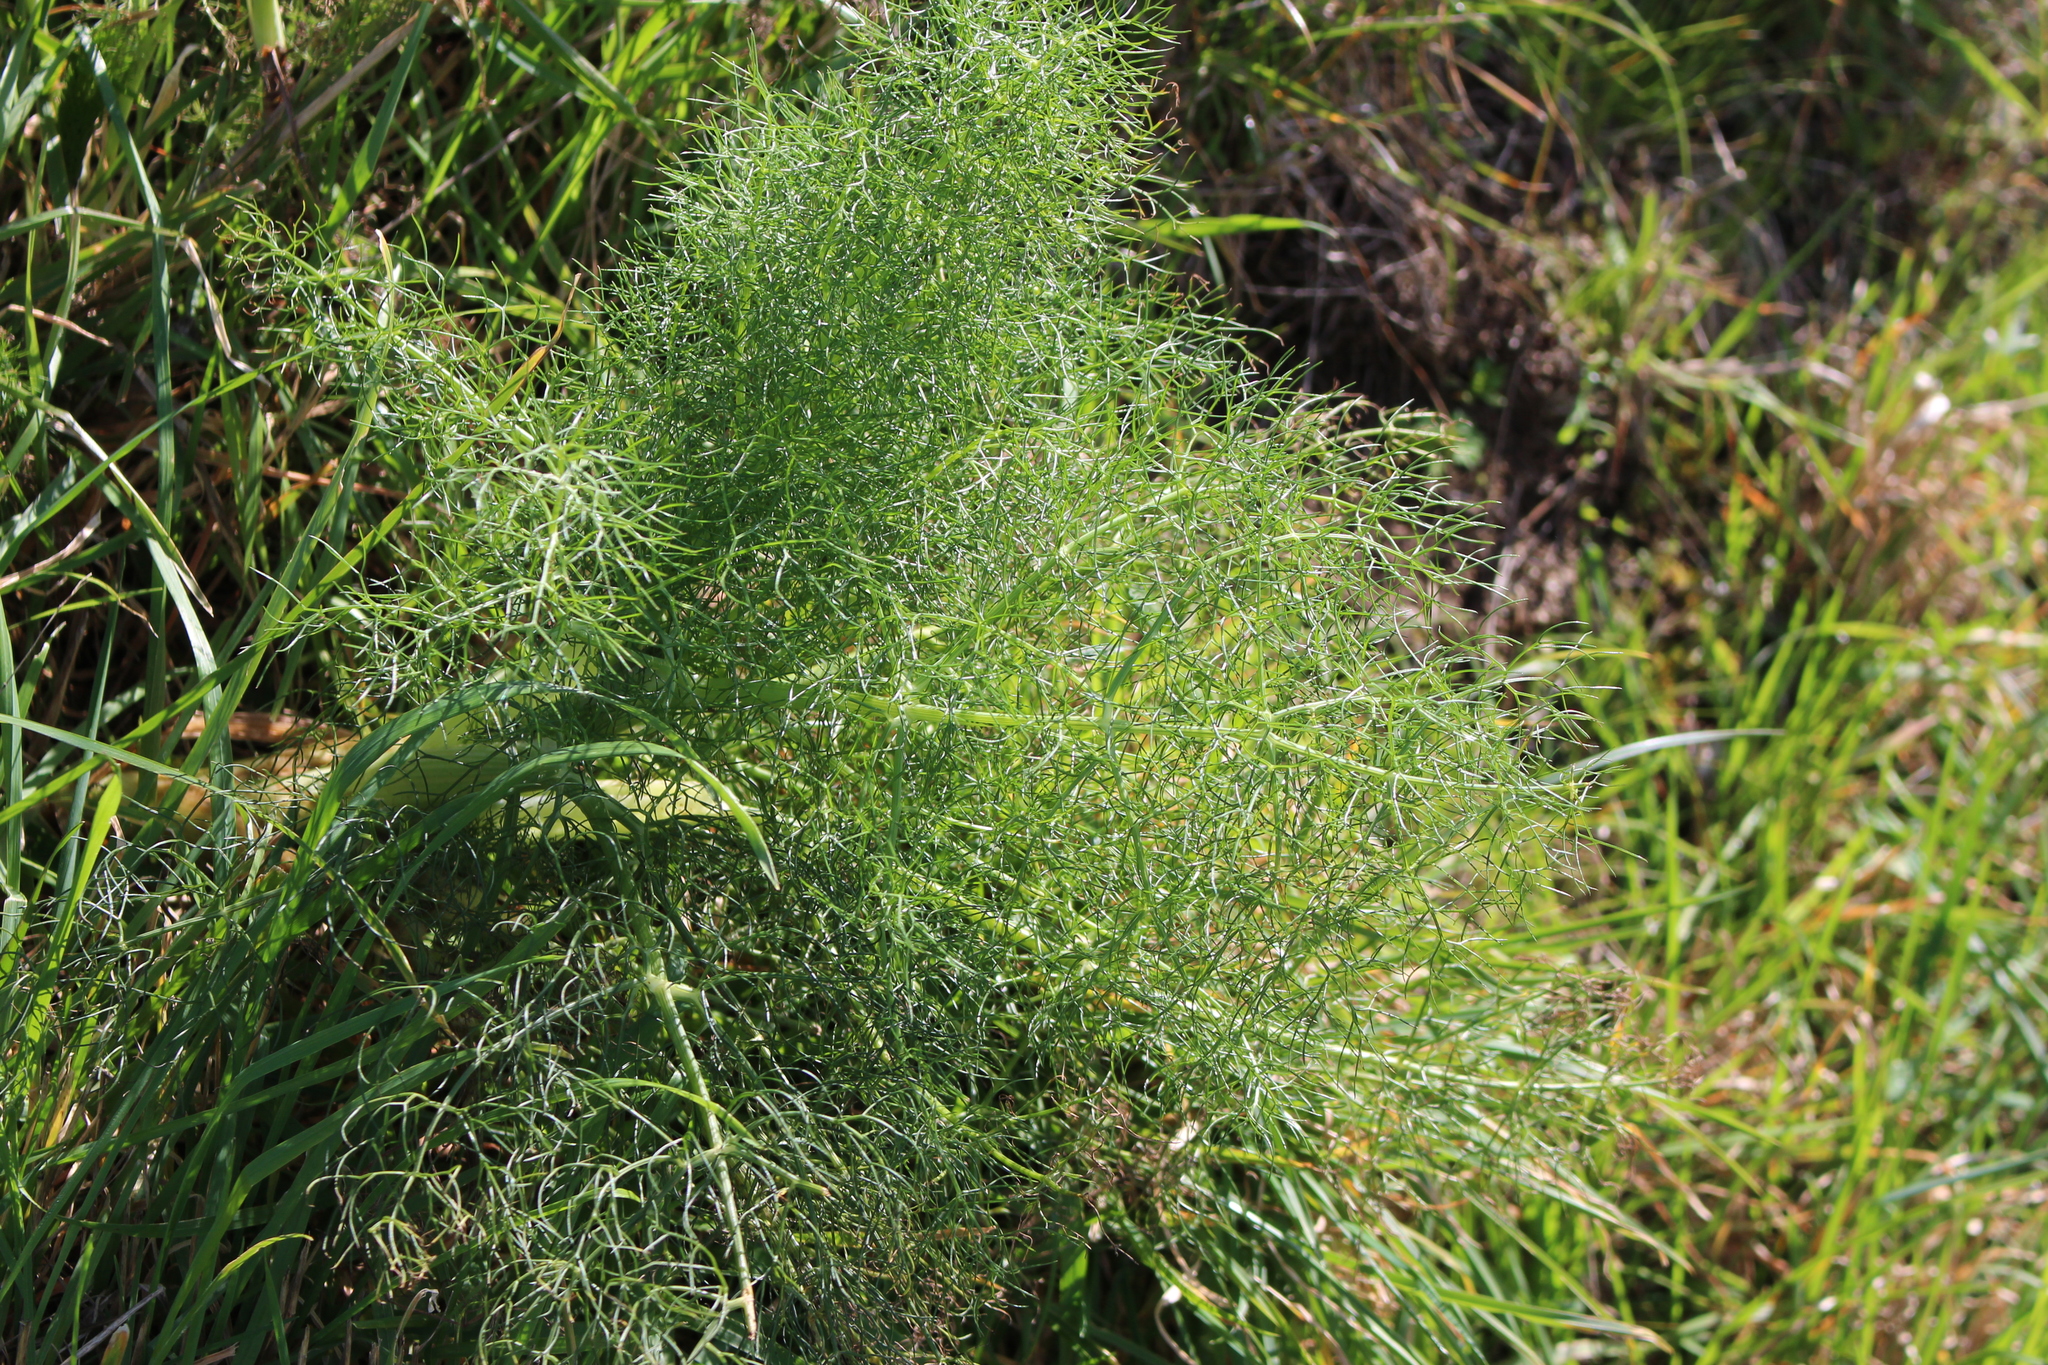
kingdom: Plantae
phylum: Tracheophyta
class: Magnoliopsida
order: Apiales
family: Apiaceae
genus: Foeniculum
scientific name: Foeniculum vulgare
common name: Fennel
